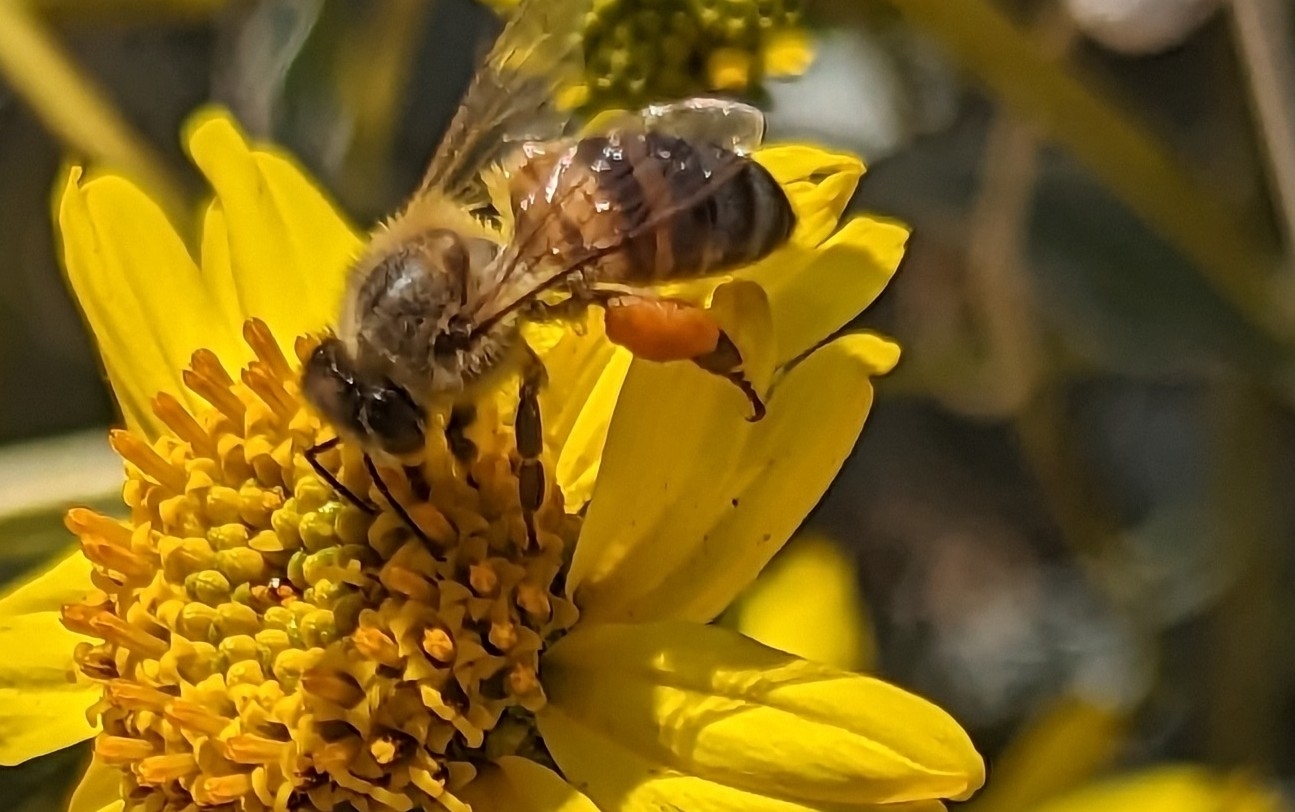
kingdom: Animalia
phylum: Arthropoda
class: Insecta
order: Hymenoptera
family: Apidae
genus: Apis
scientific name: Apis mellifera
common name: Honey bee
